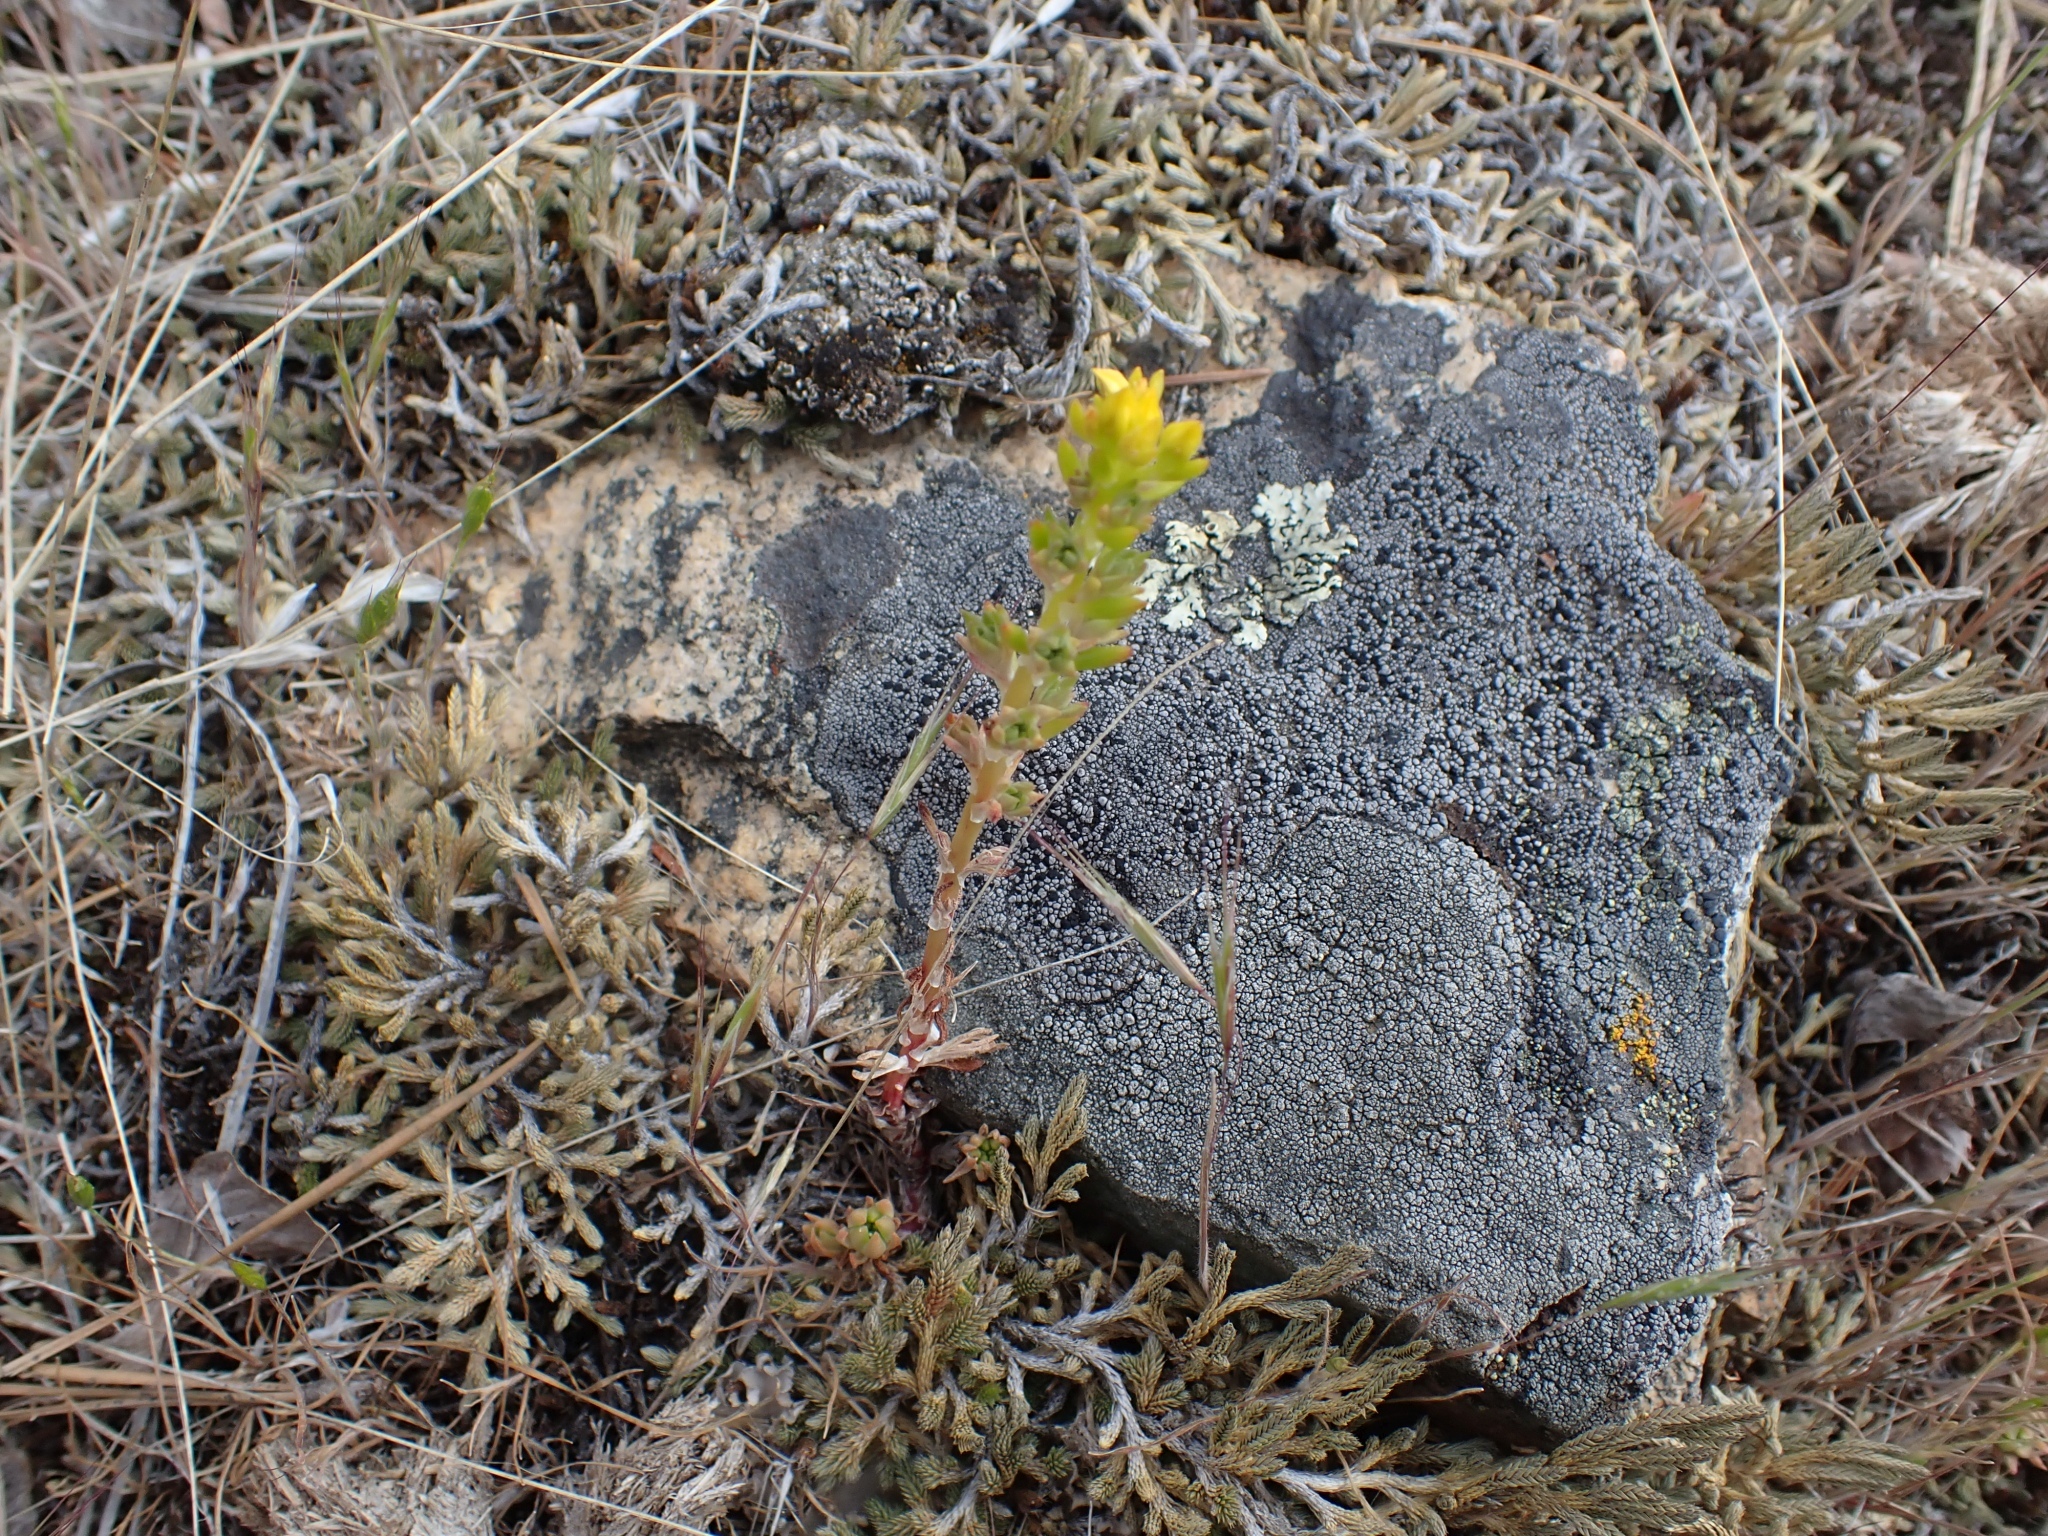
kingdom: Plantae
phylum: Tracheophyta
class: Magnoliopsida
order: Saxifragales
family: Crassulaceae
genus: Sedum
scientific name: Sedum stenopetalum
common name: Narrow-petaled stonecrop
